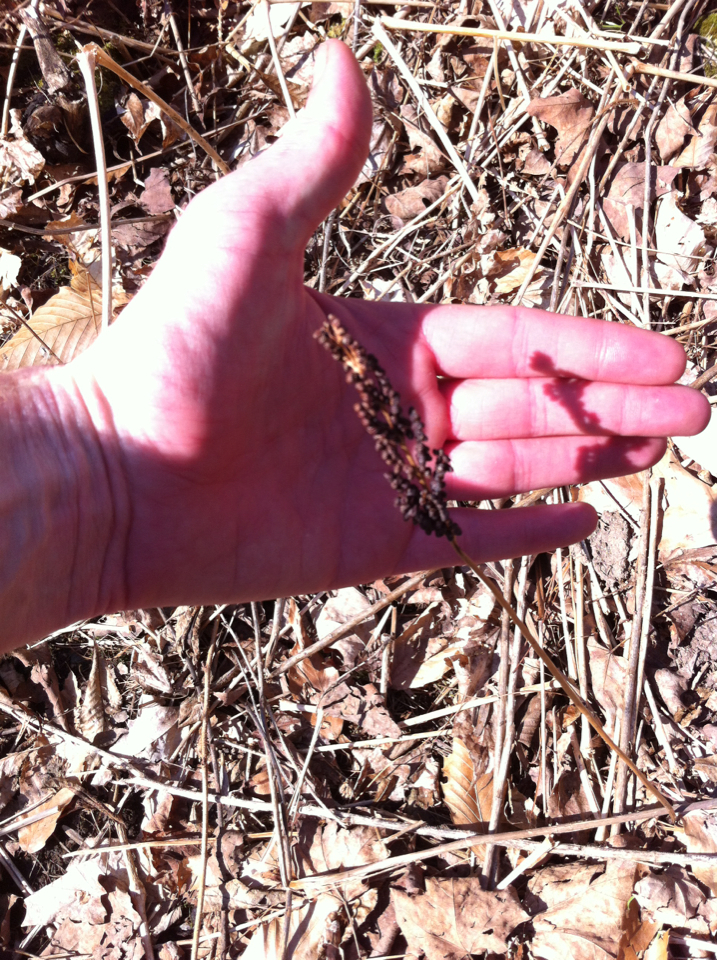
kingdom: Plantae
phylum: Tracheophyta
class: Polypodiopsida
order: Polypodiales
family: Onocleaceae
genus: Onoclea
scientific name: Onoclea sensibilis
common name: Sensitive fern
